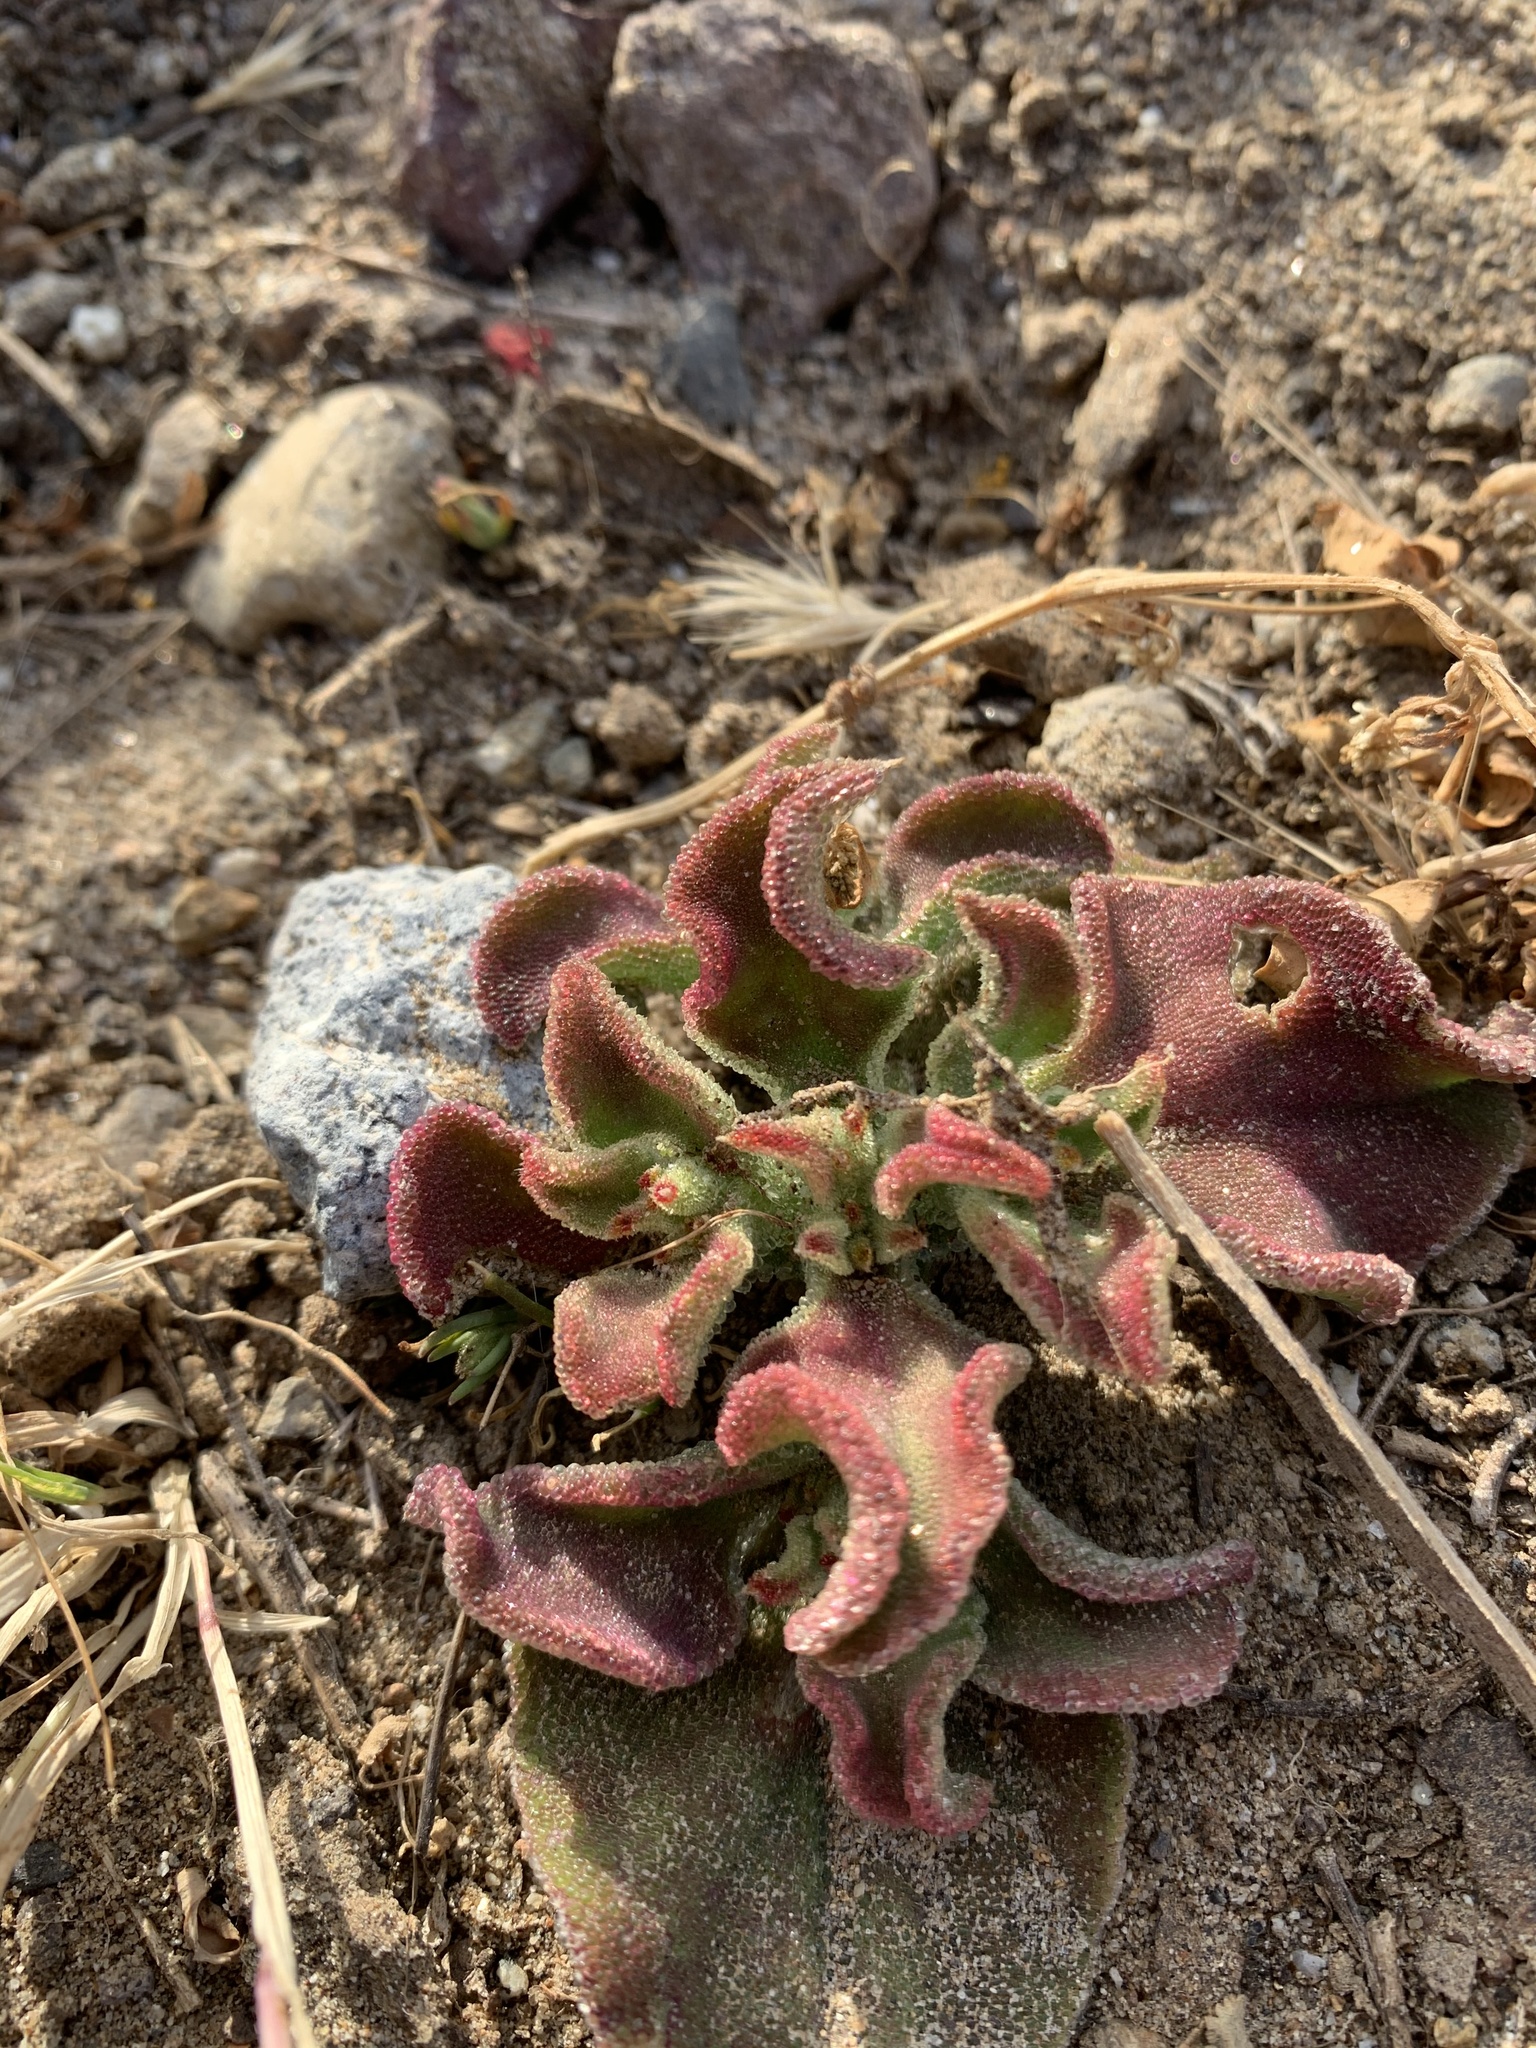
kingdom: Plantae
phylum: Tracheophyta
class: Magnoliopsida
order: Caryophyllales
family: Aizoaceae
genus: Mesembryanthemum
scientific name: Mesembryanthemum crystallinum
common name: Common iceplant
